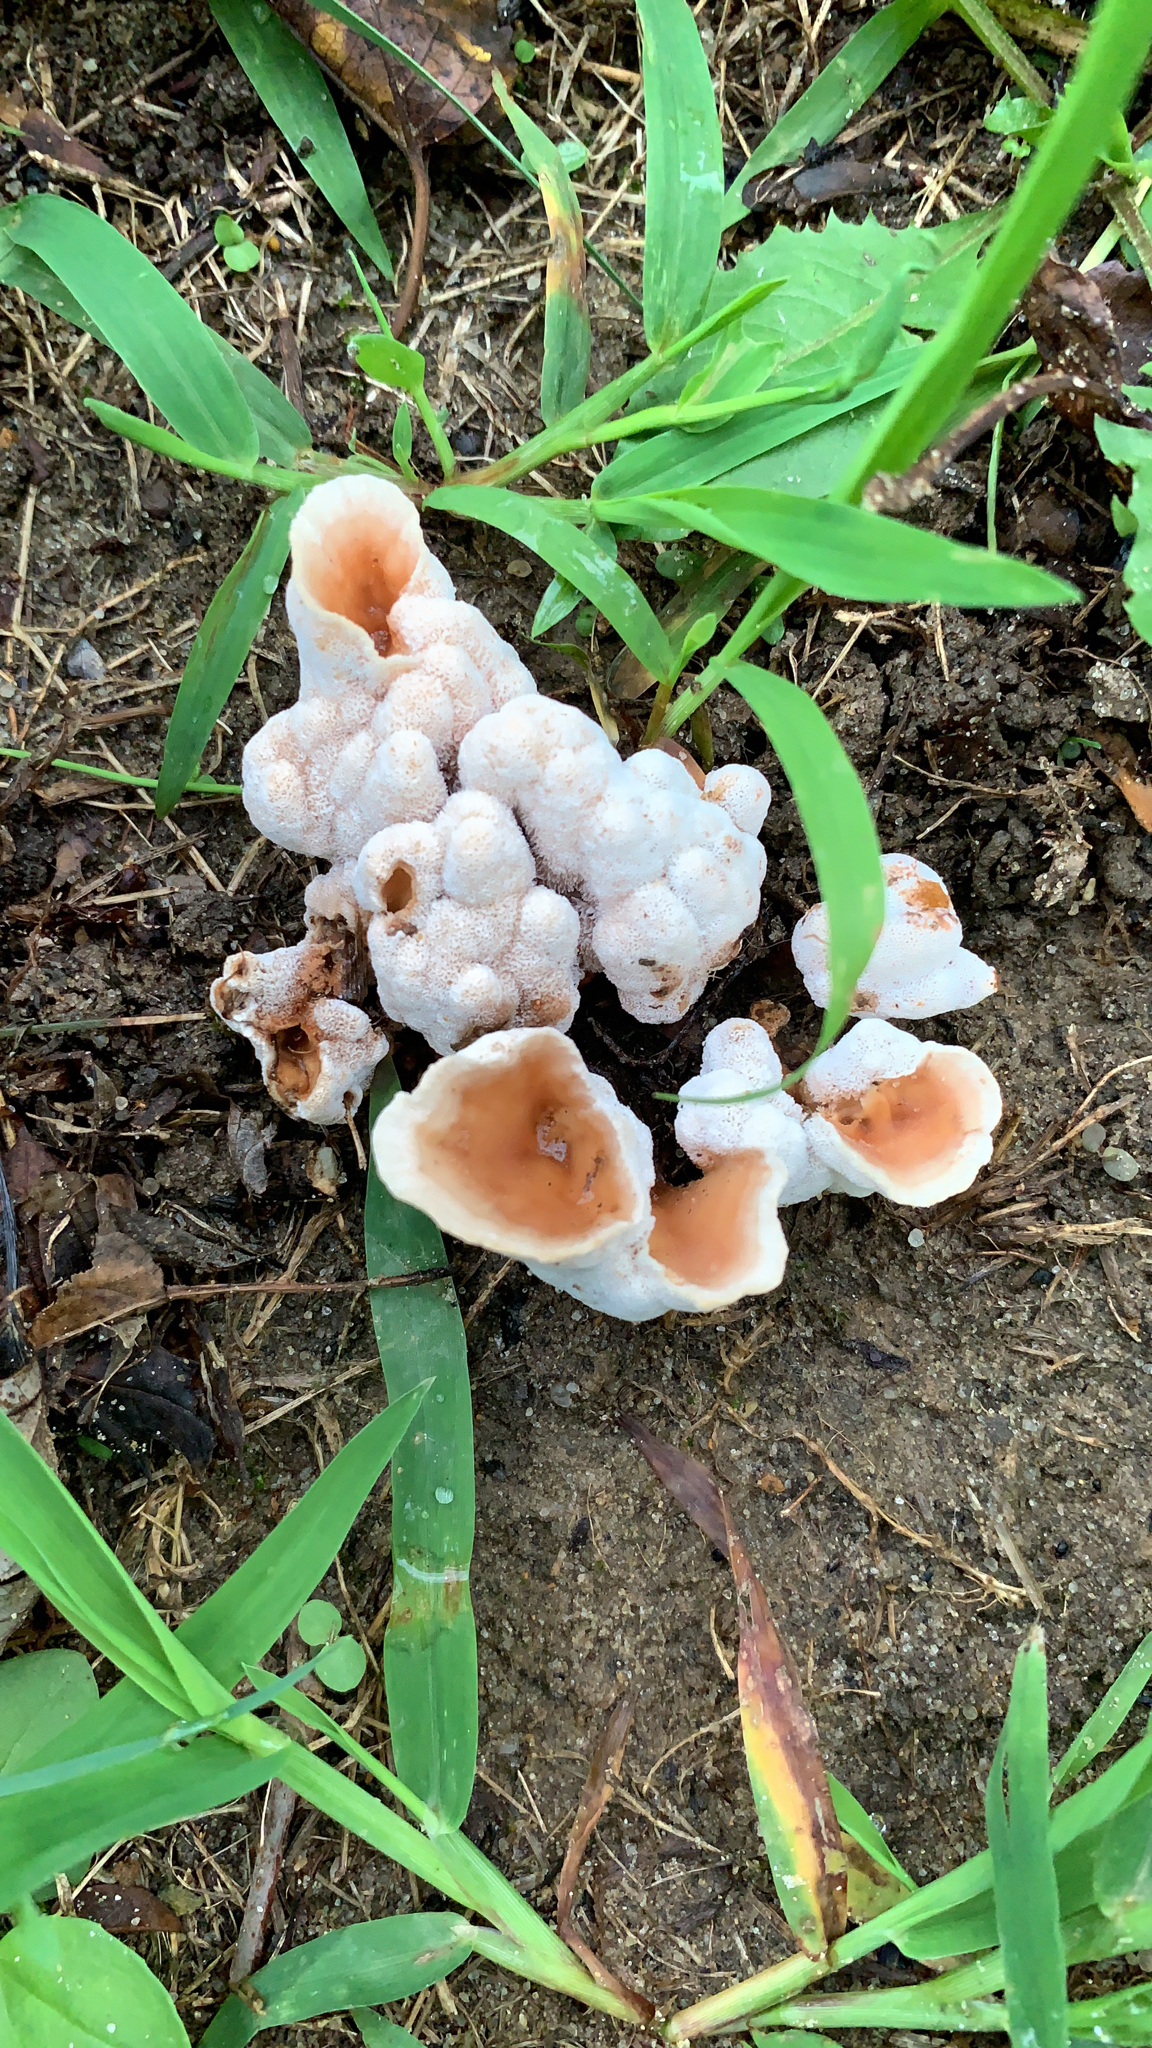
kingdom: Fungi
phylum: Basidiomycota
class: Agaricomycetes
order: Polyporales
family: Podoscyphaceae
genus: Abortiporus
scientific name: Abortiporus biennis
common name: Blushing rosette
